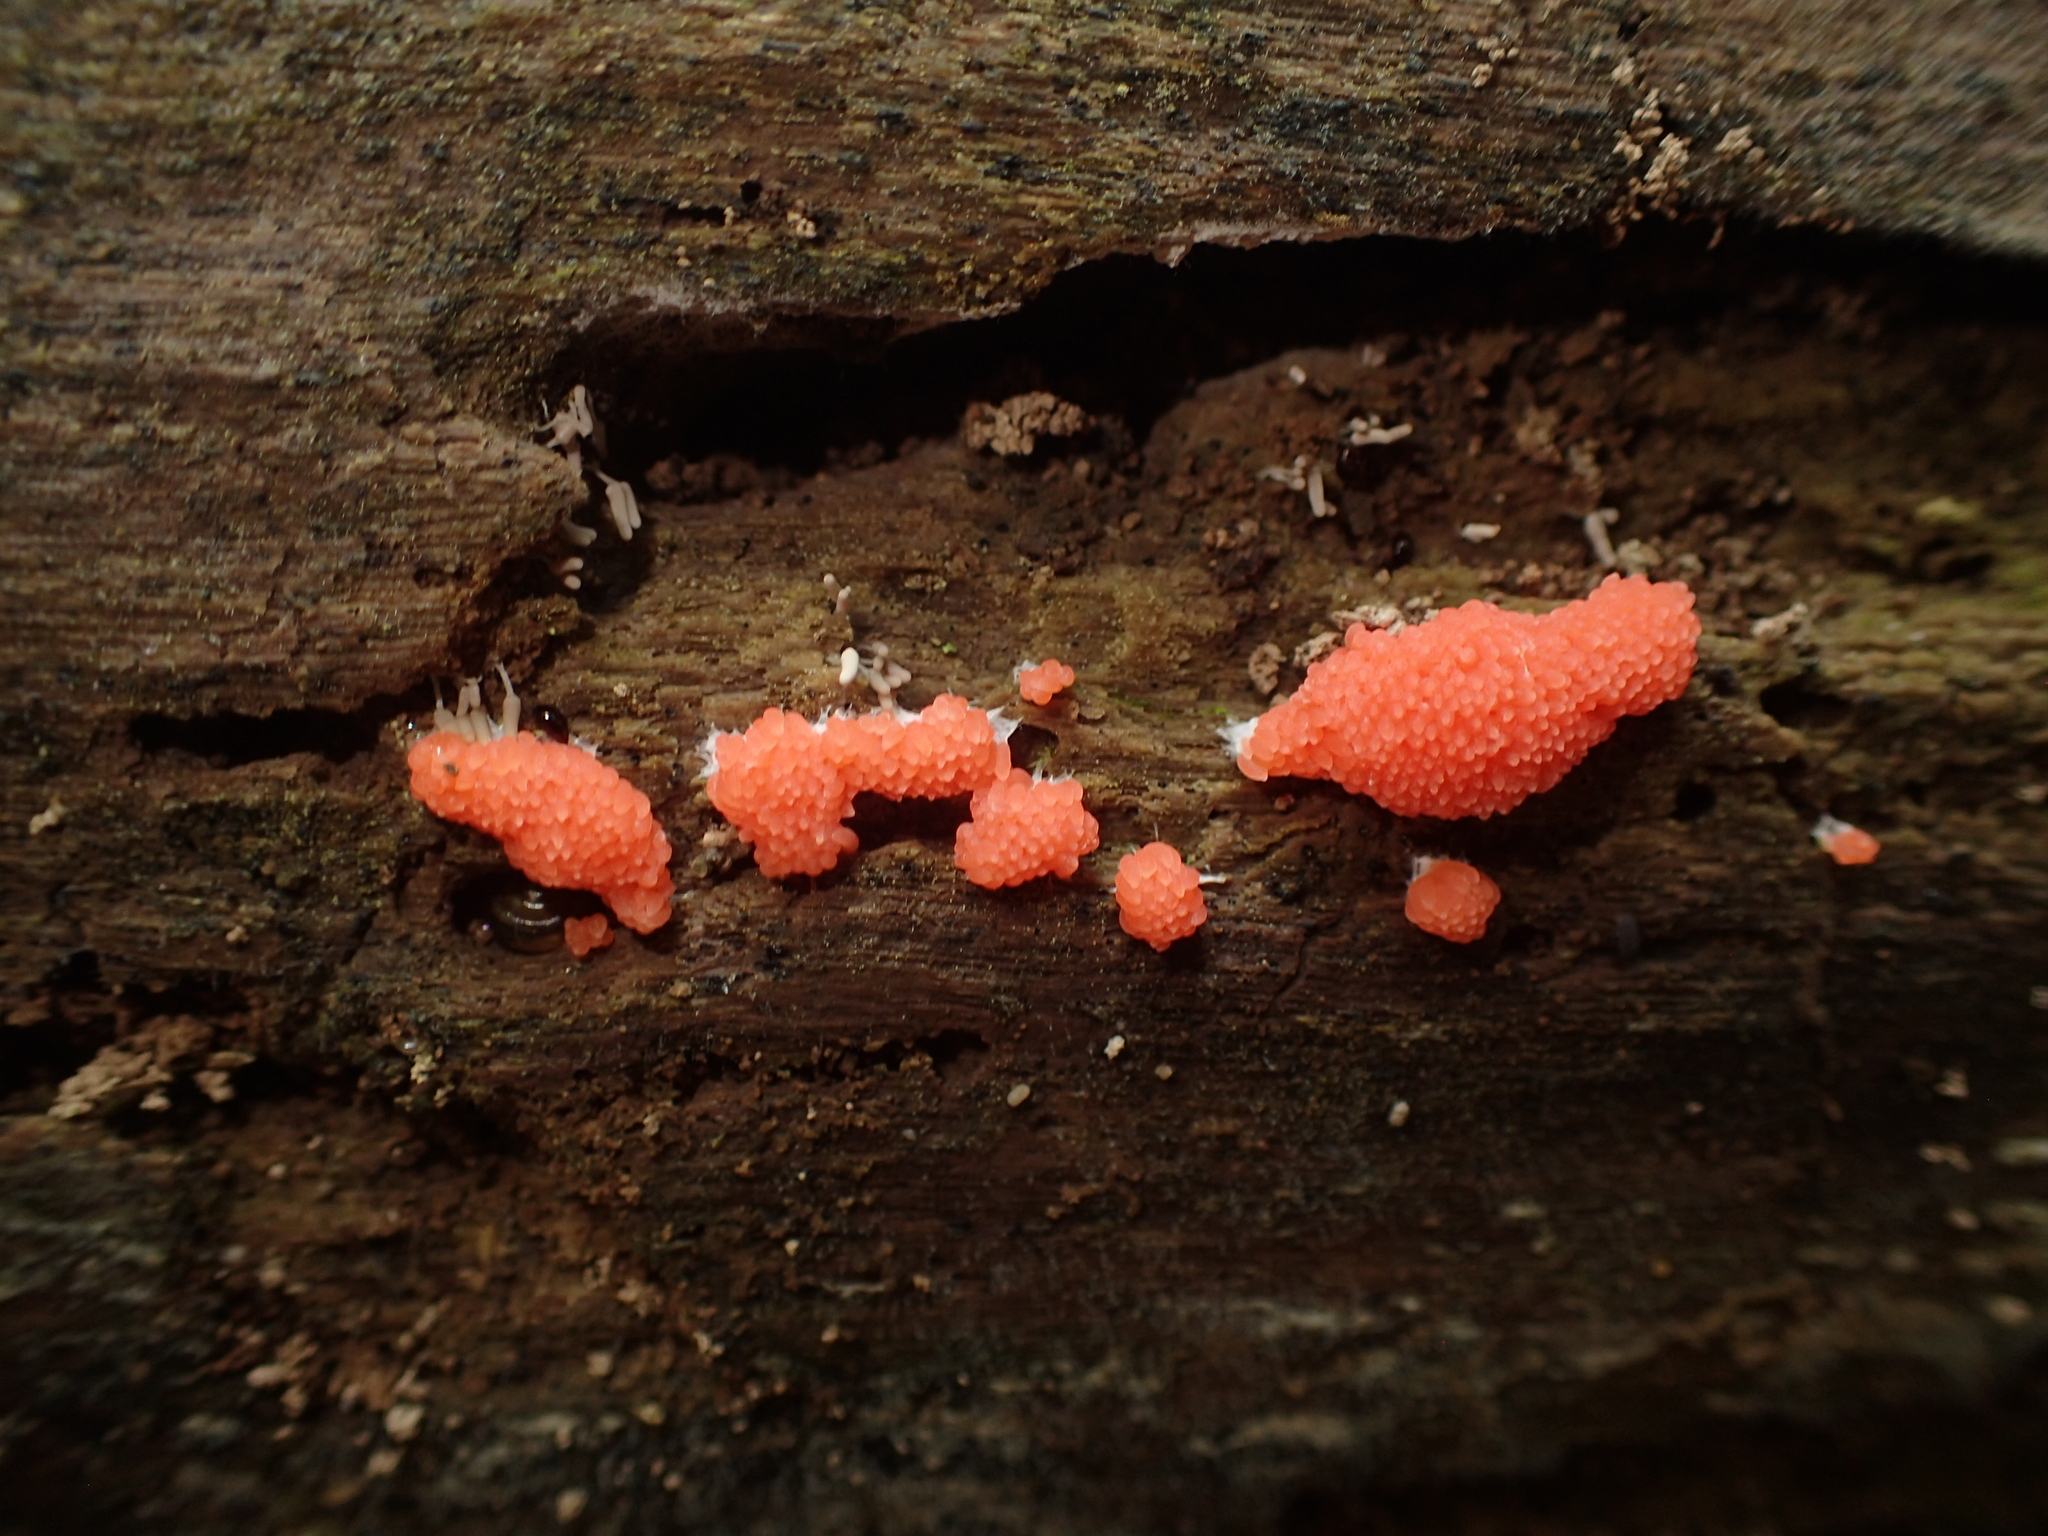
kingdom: Protozoa
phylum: Mycetozoa
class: Myxomycetes
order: Cribrariales
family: Tubiferaceae
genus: Tubifera
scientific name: Tubifera ferruginosa
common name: Red raspberry slime mold
